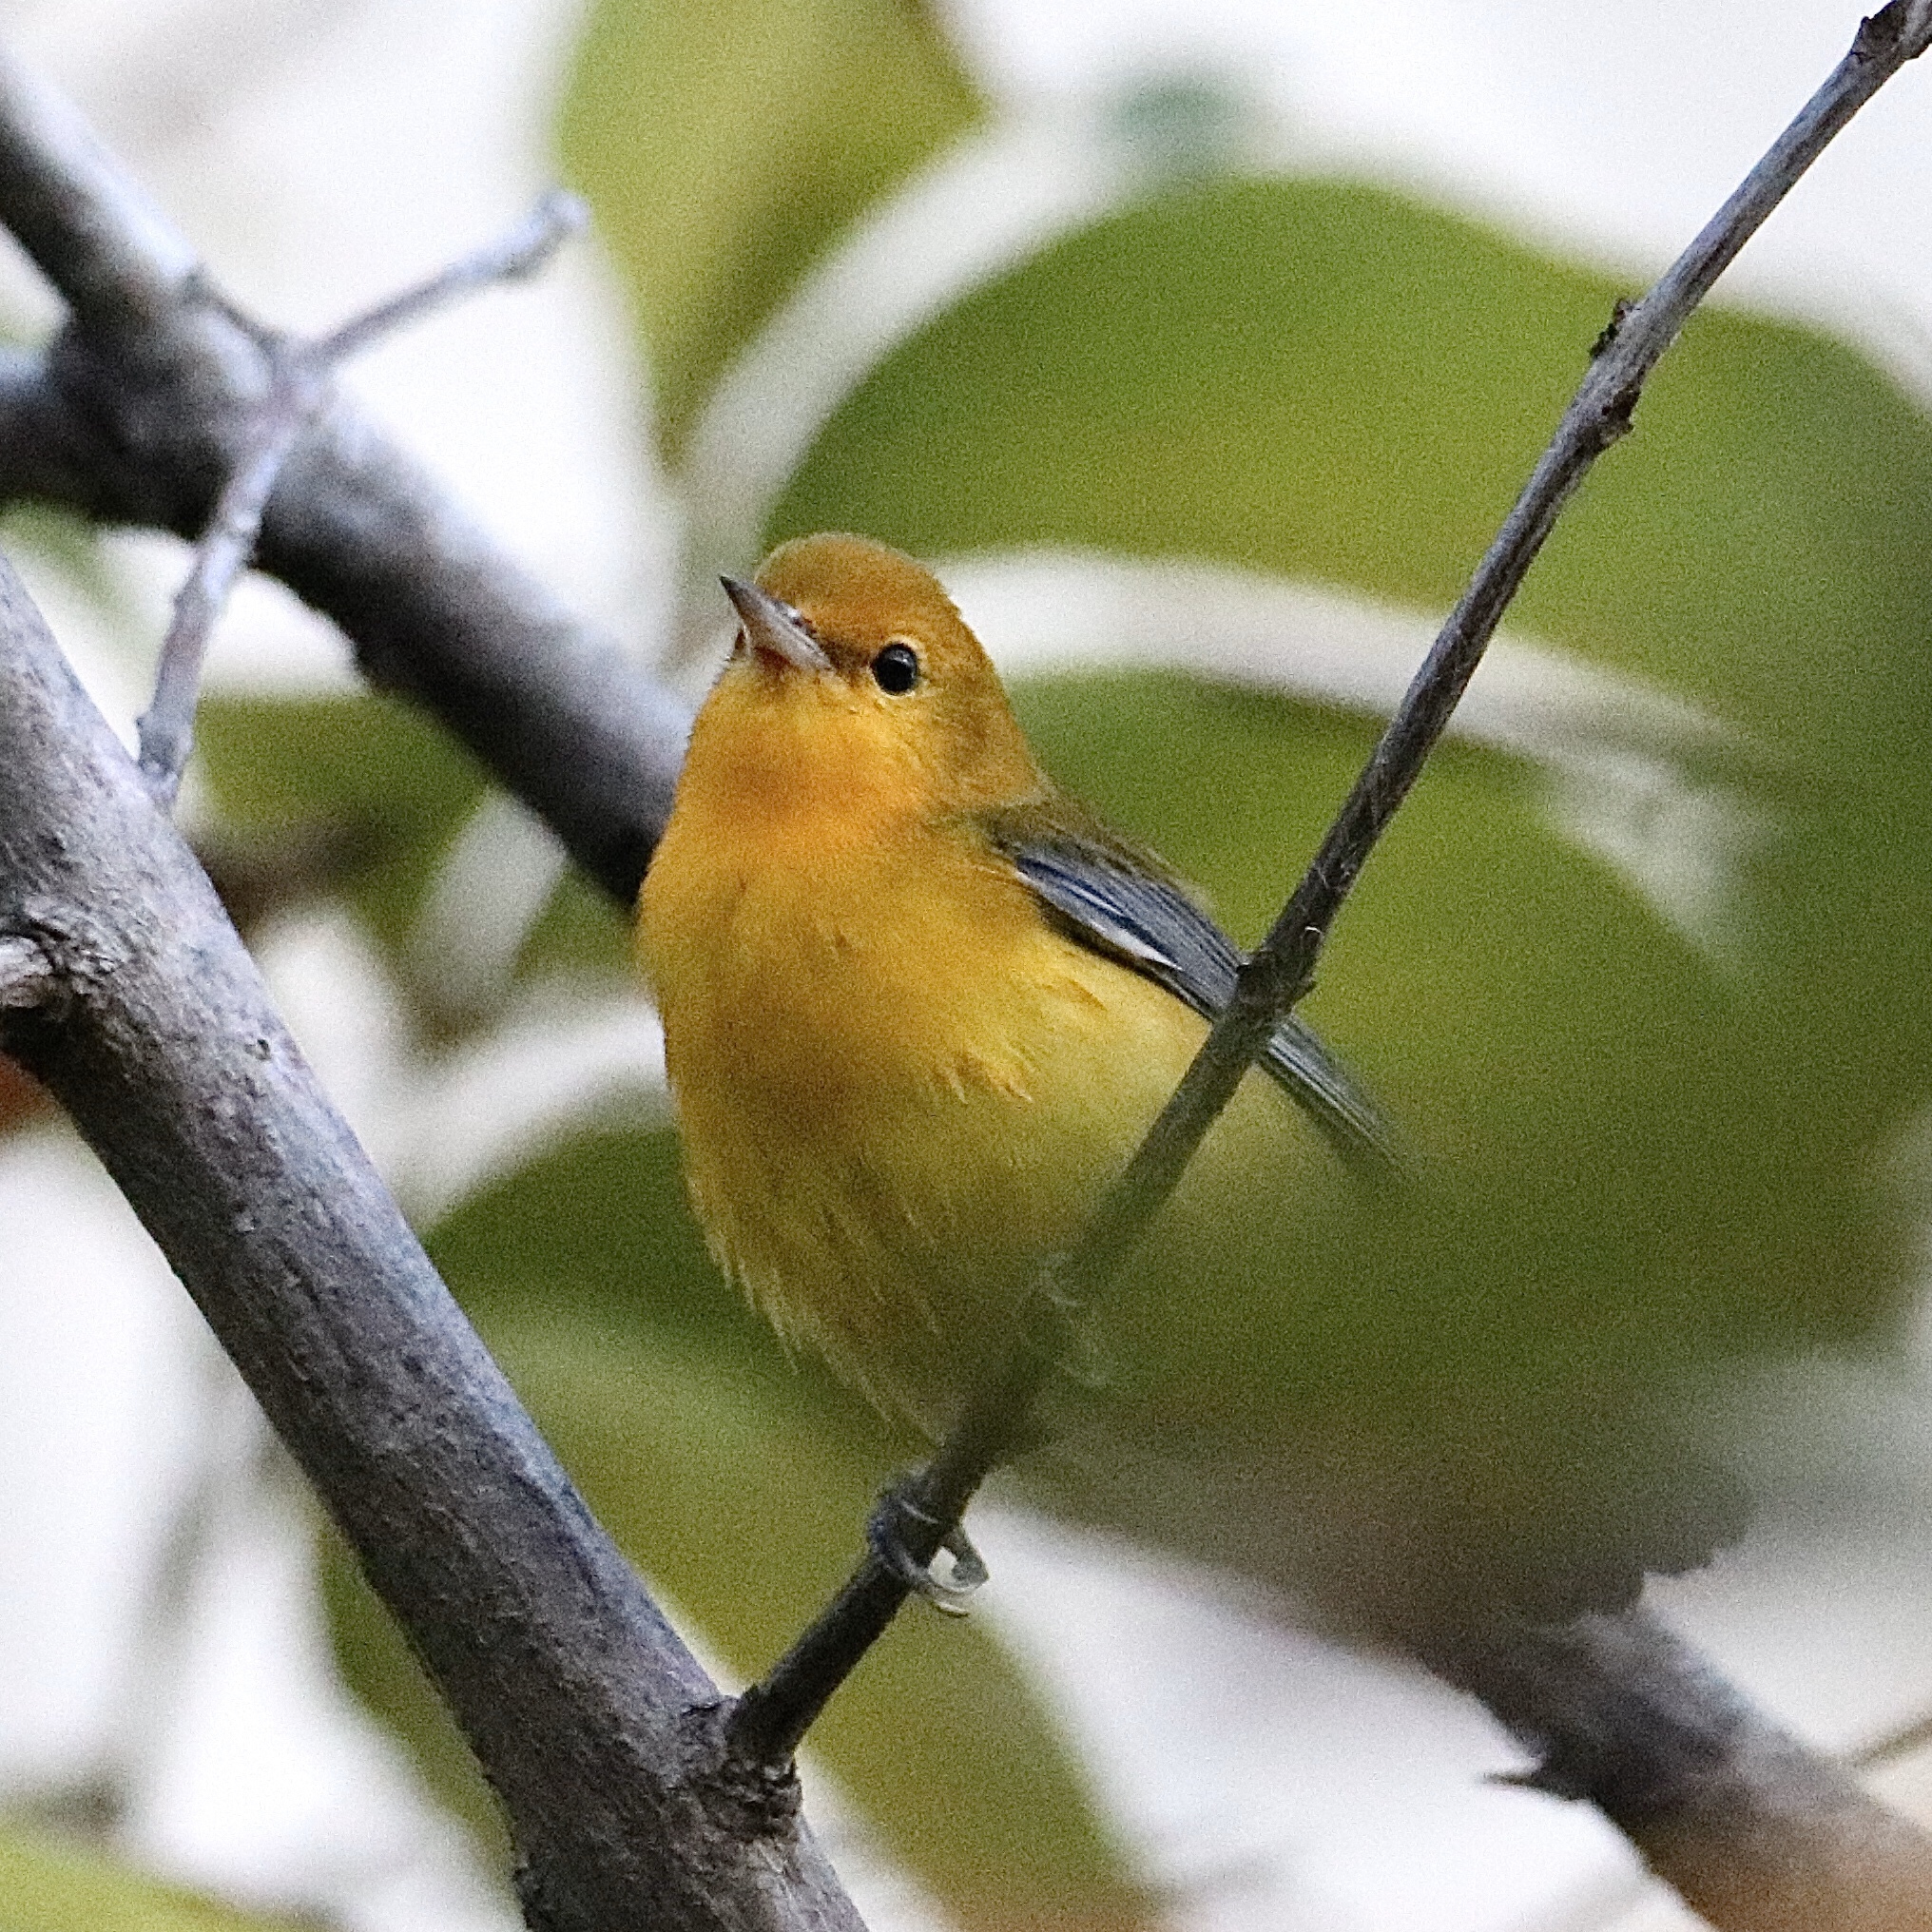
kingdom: Animalia
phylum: Chordata
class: Aves
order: Passeriformes
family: Parulidae
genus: Protonotaria
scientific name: Protonotaria citrea
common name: Prothonotary warbler
